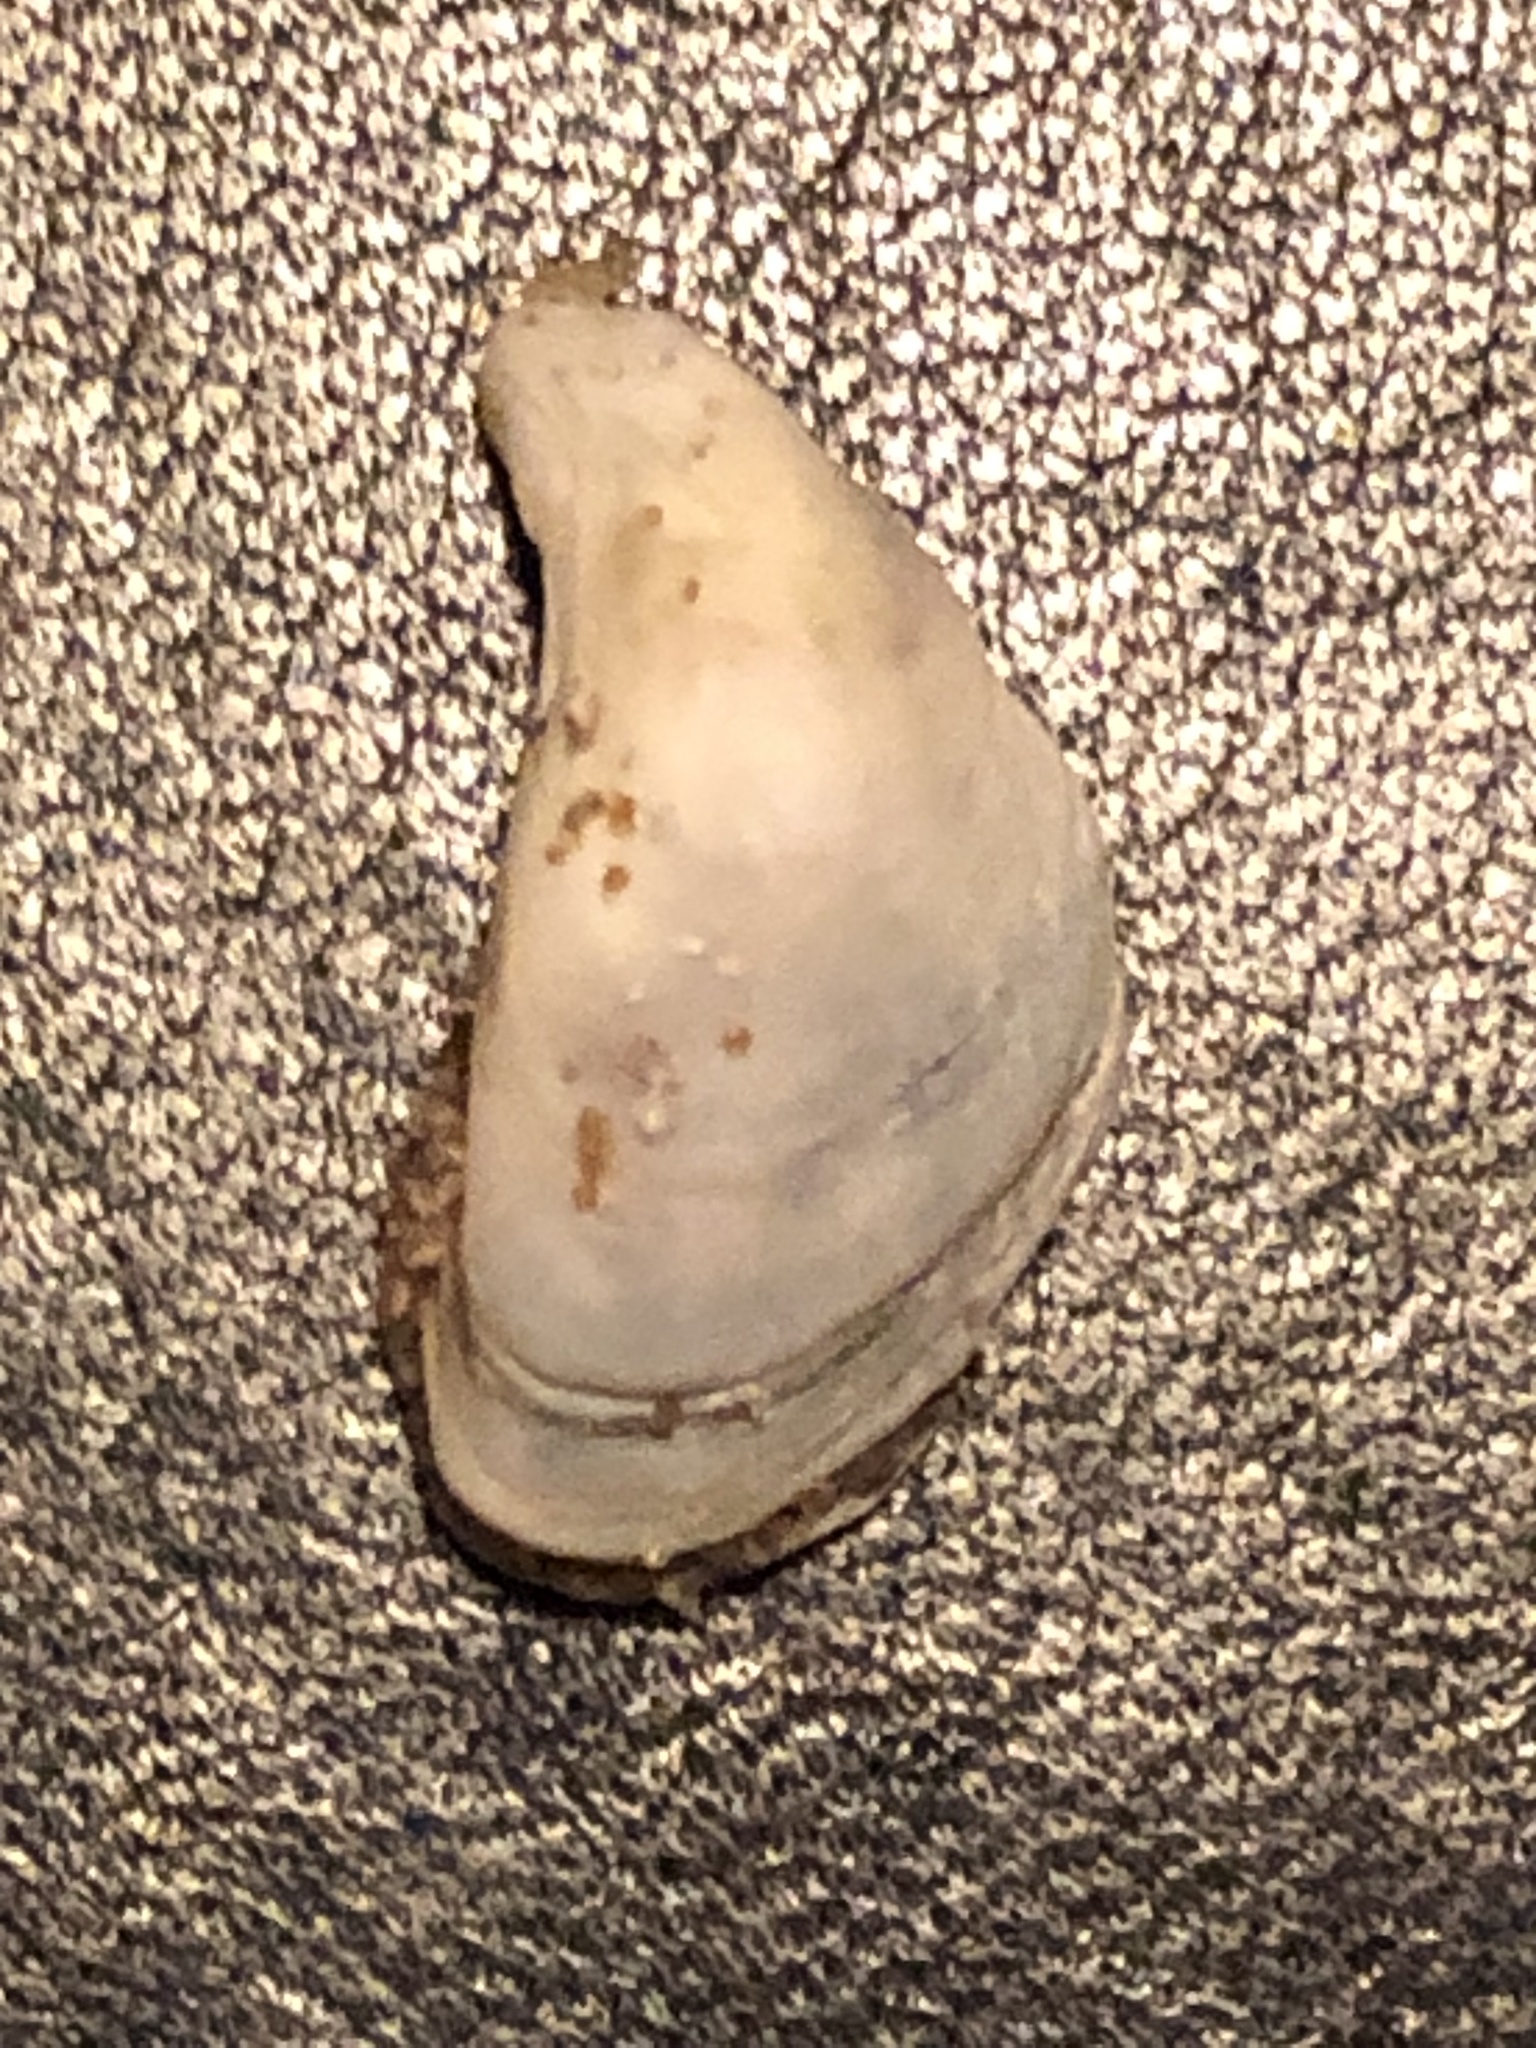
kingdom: Animalia
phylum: Mollusca
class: Bivalvia
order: Myida
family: Dreissenidae
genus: Dreissena
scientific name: Dreissena bugensis
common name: Quagga mussel
